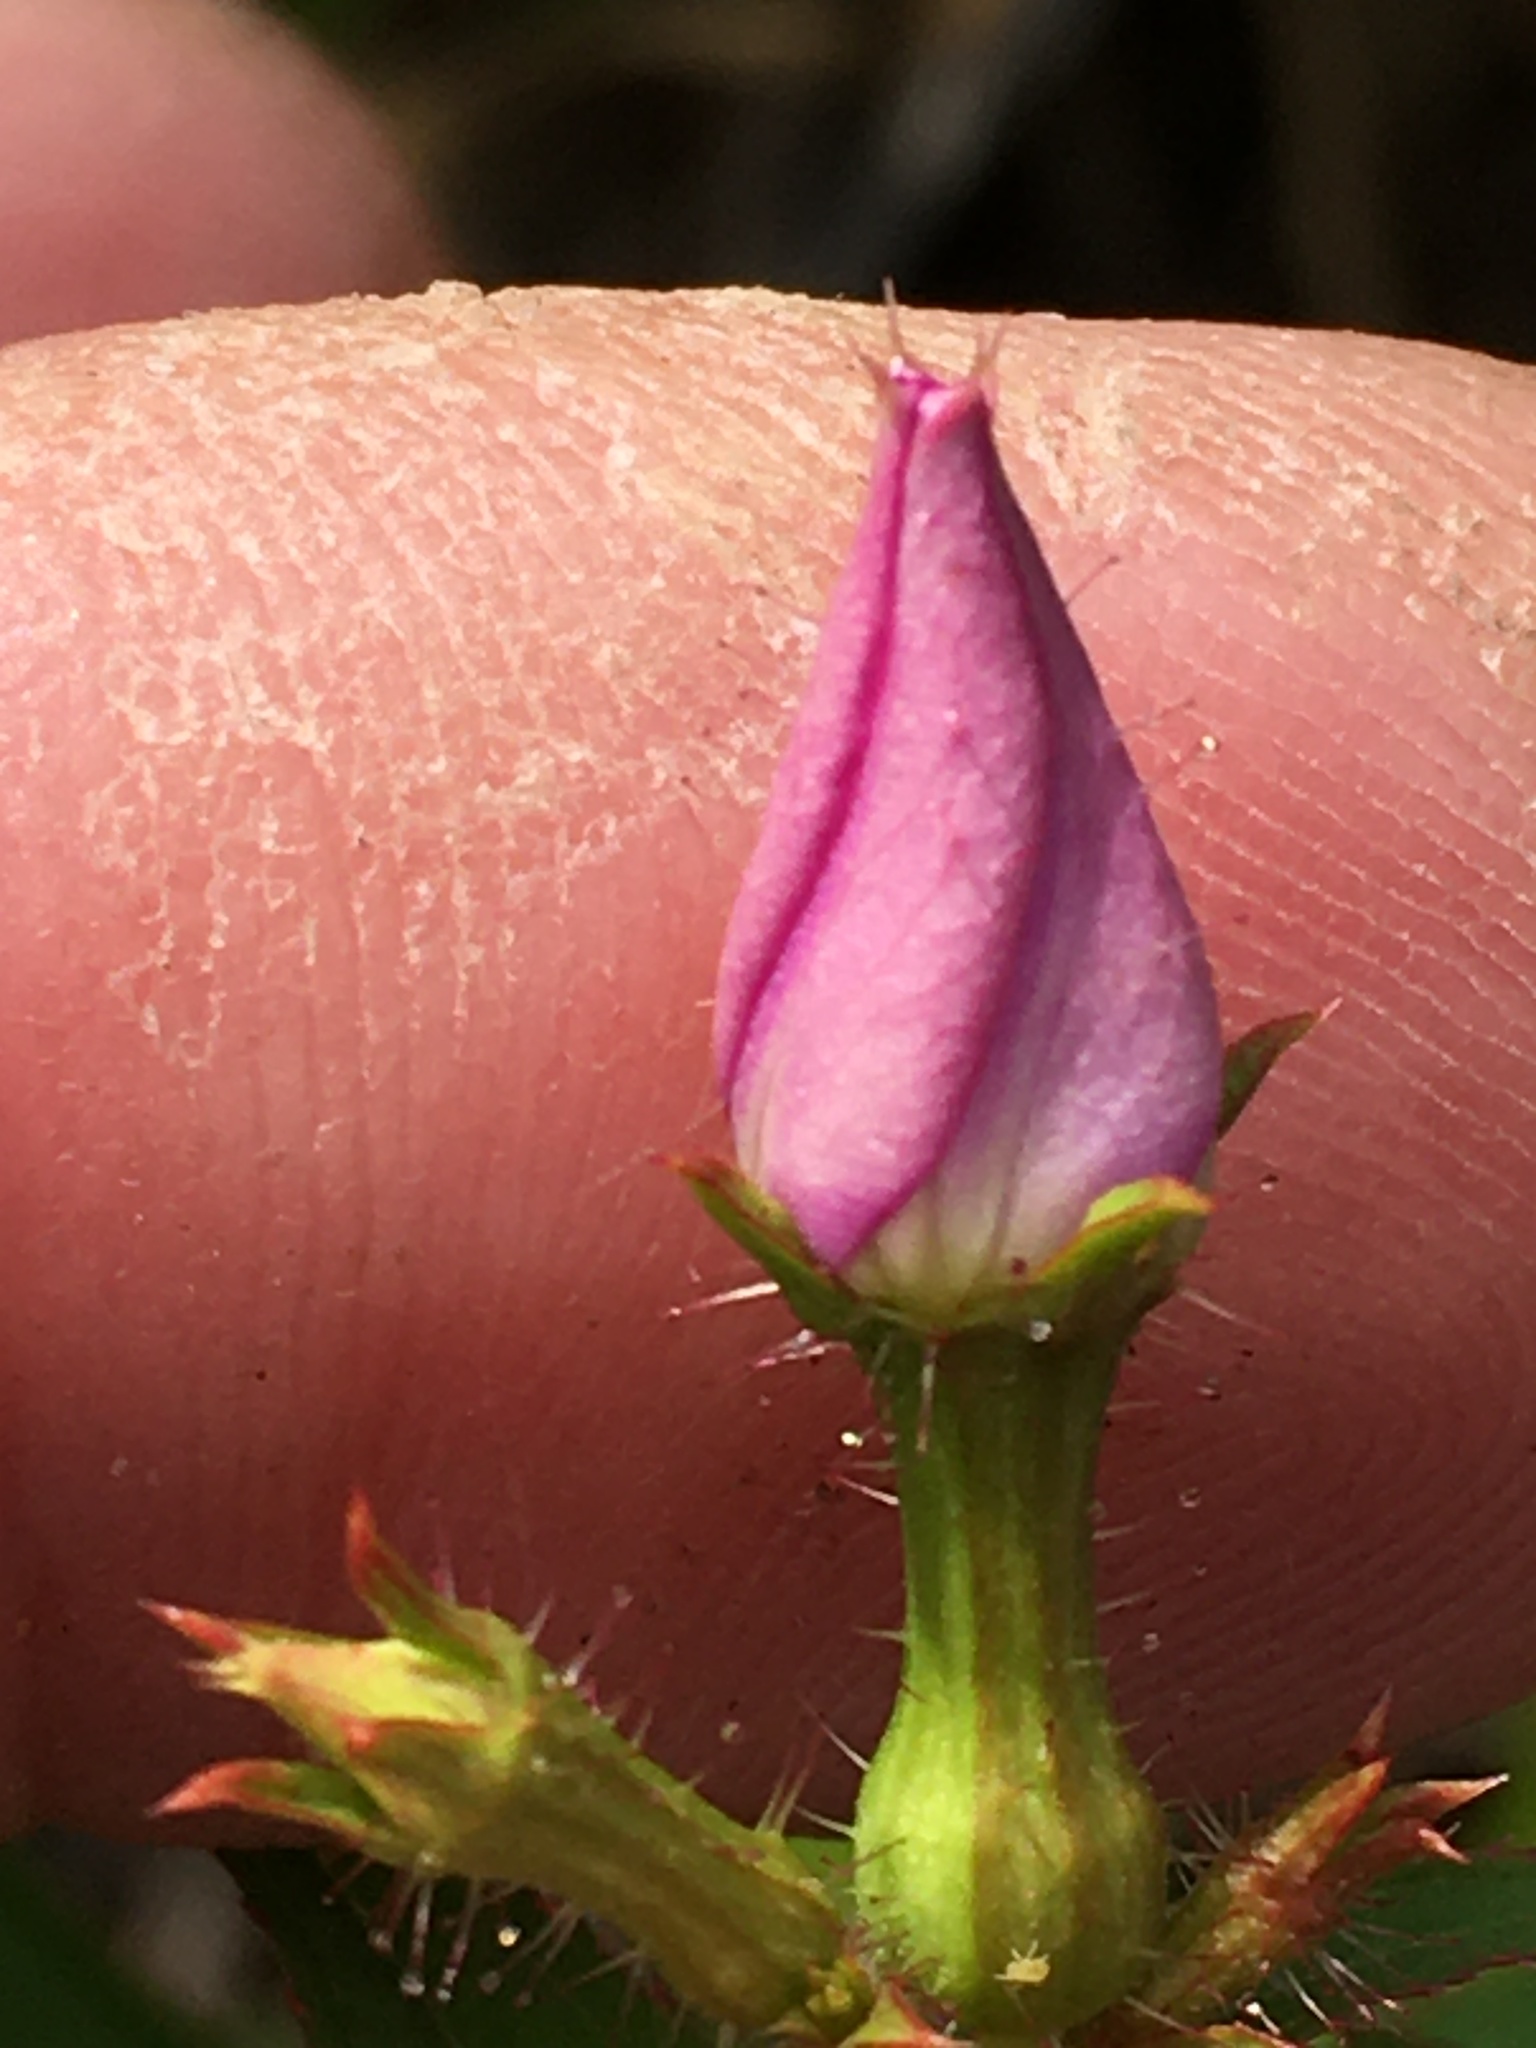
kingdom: Plantae
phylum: Tracheophyta
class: Magnoliopsida
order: Myrtales
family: Melastomataceae
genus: Rhexia
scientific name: Rhexia nashii
